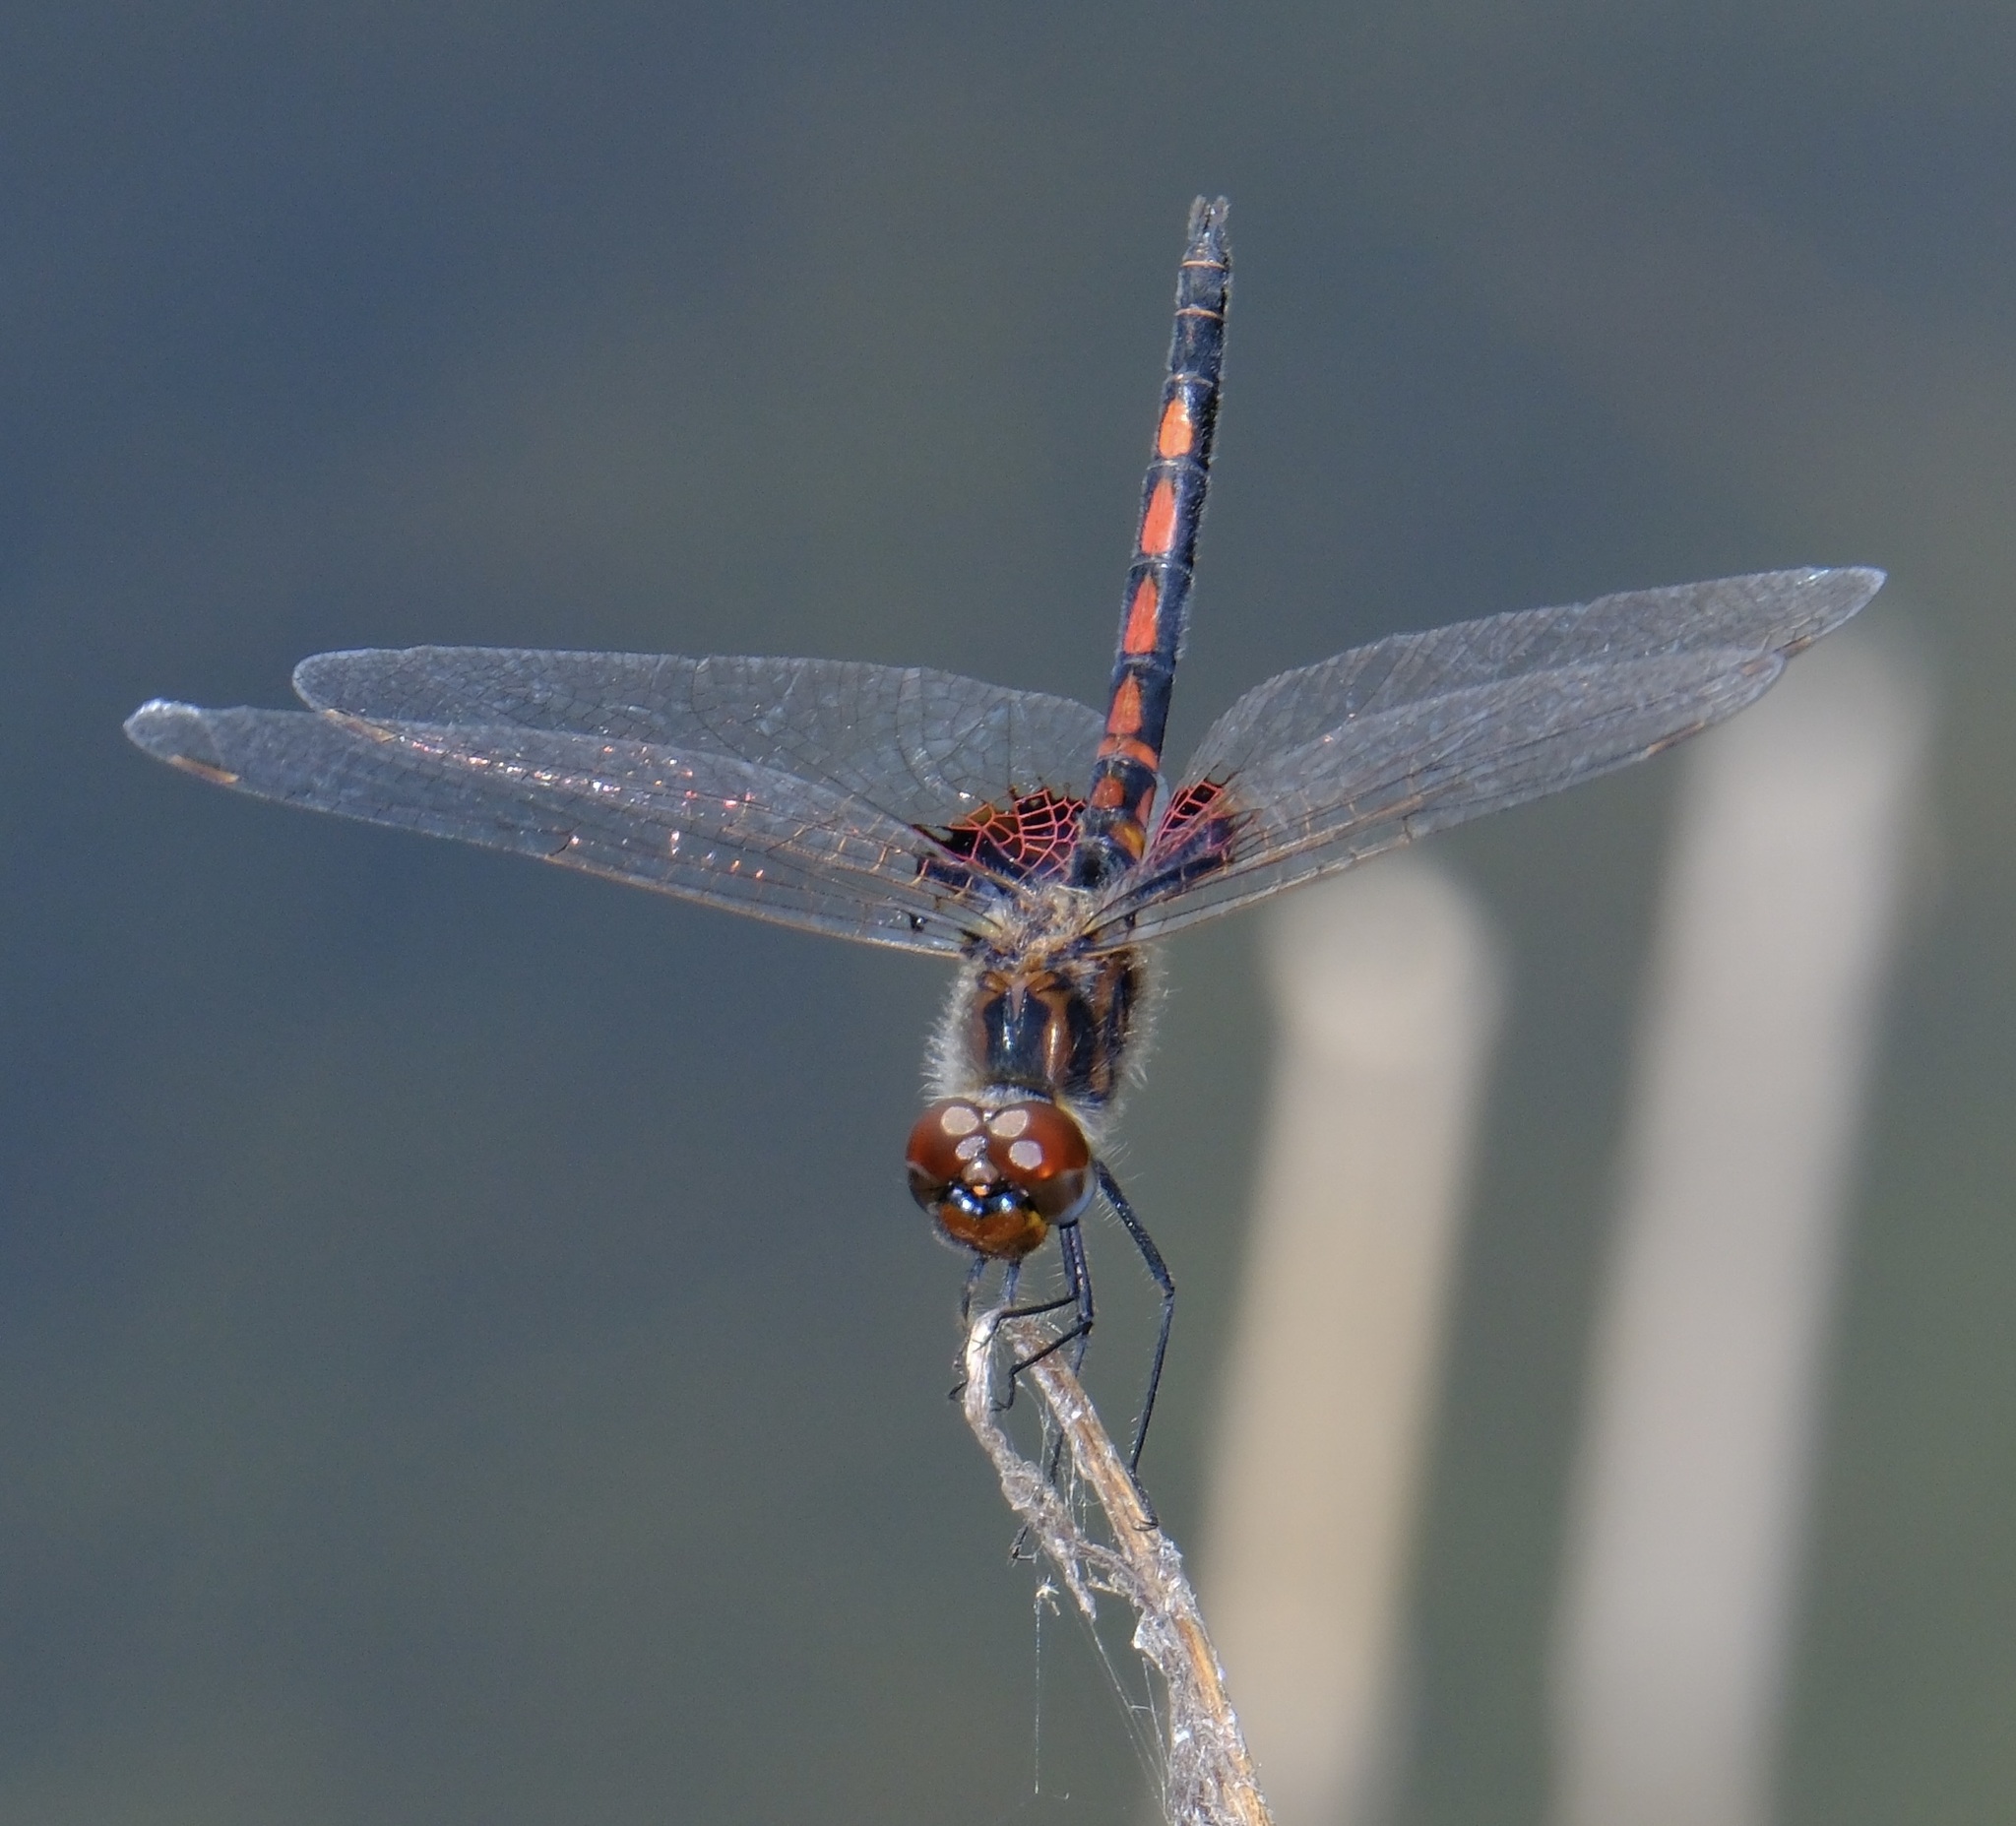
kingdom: Animalia
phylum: Arthropoda
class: Insecta
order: Odonata
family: Libellulidae
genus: Celithemis
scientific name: Celithemis ornata
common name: Ornate pennant
